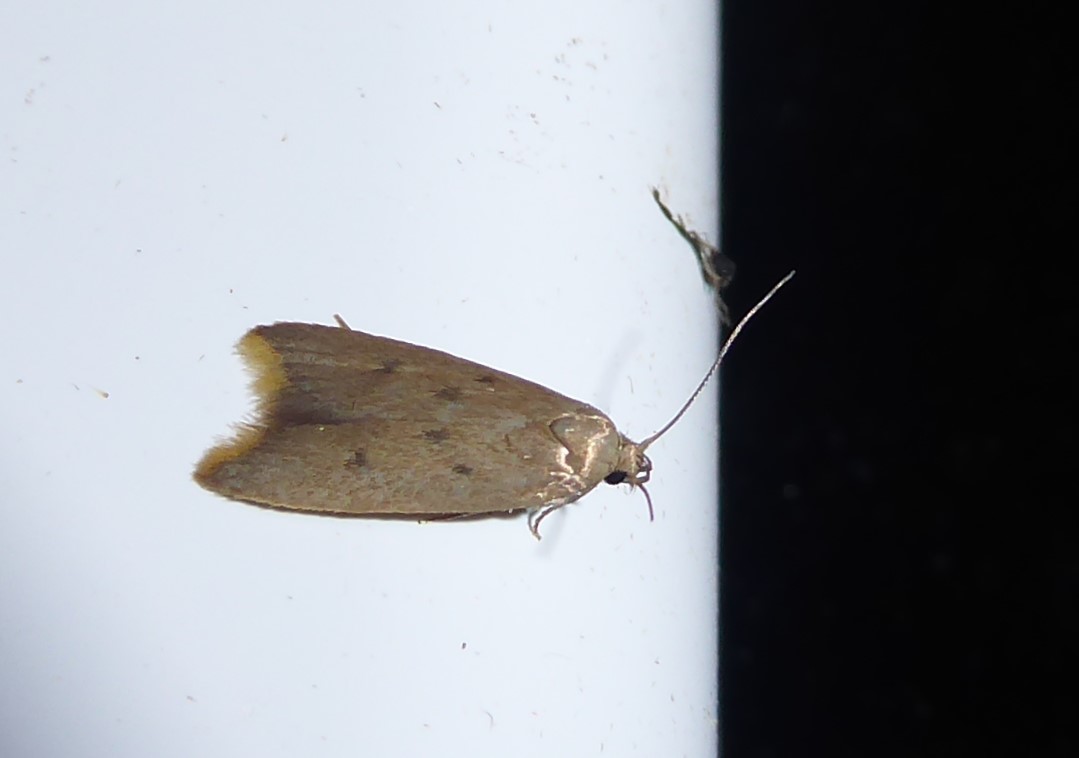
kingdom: Animalia
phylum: Arthropoda
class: Insecta
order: Lepidoptera
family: Oecophoridae
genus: Tachystola
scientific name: Tachystola acroxantha
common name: Ruddy streak
